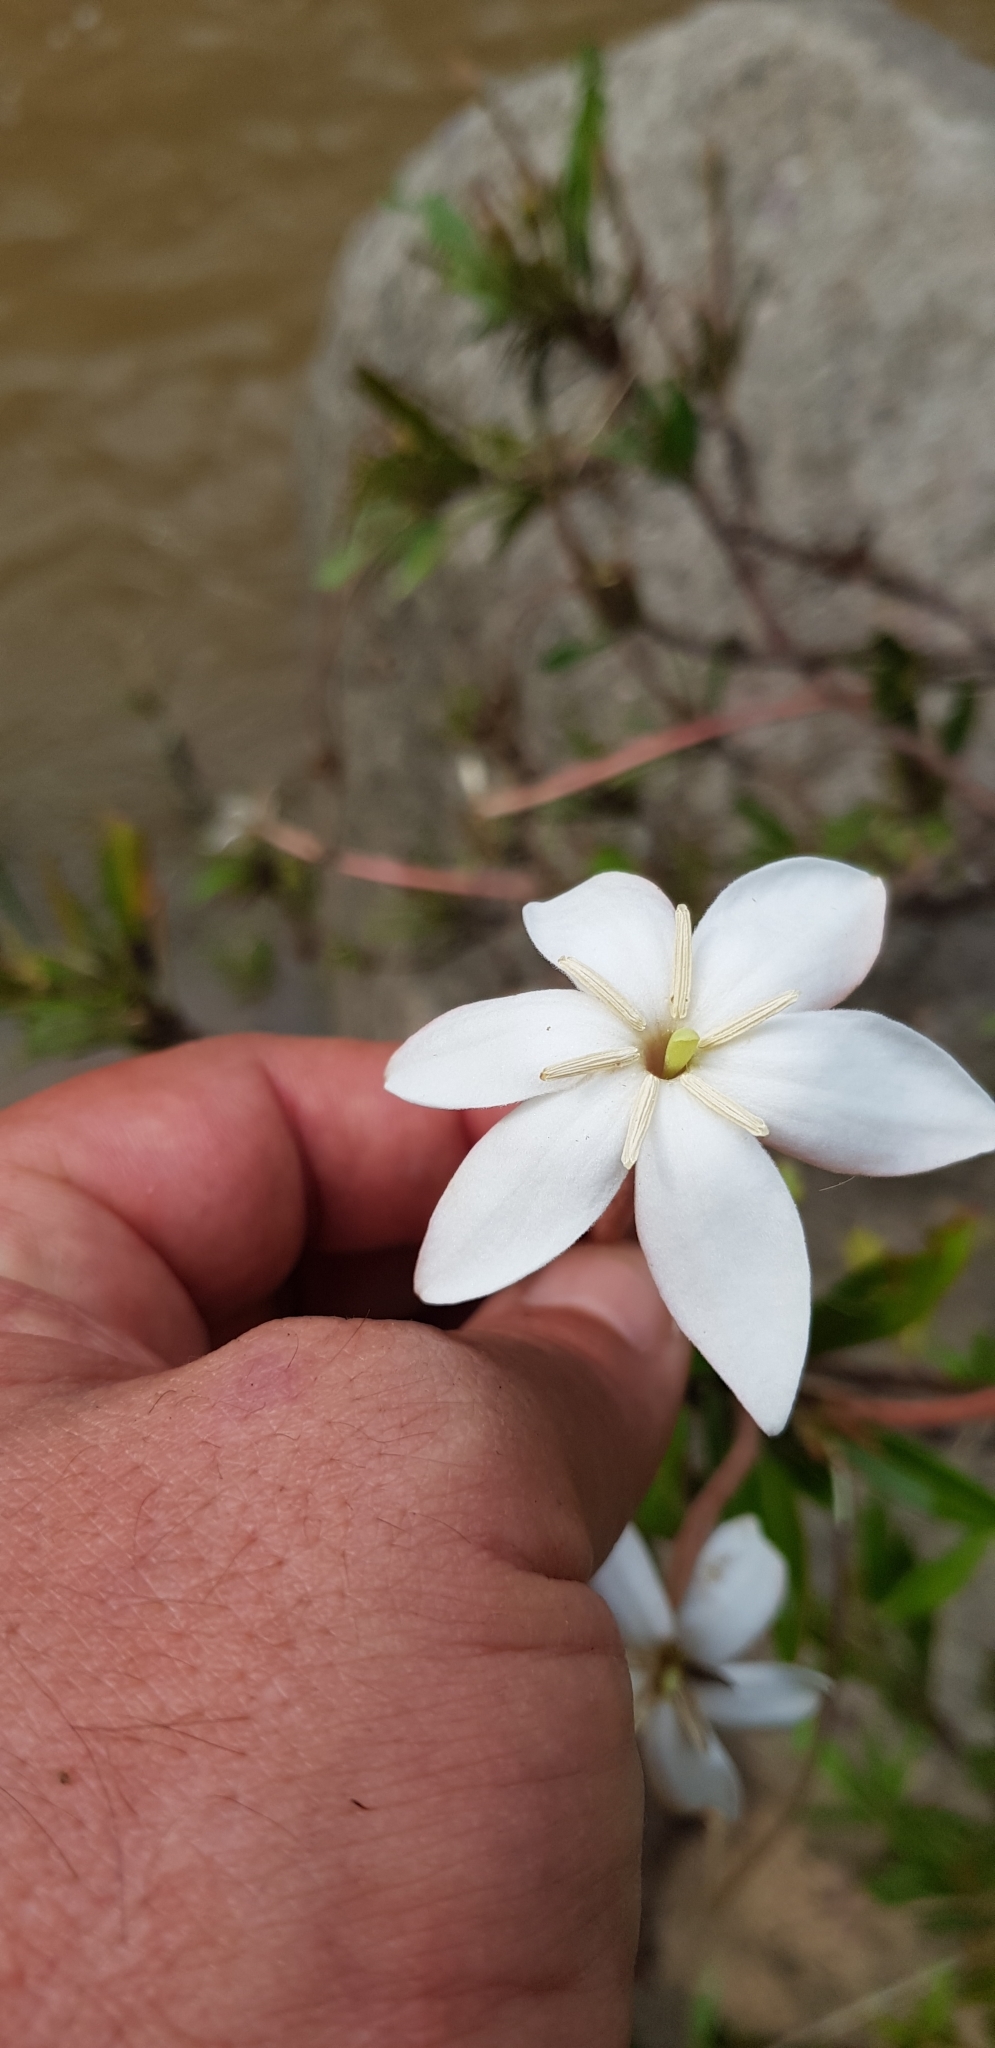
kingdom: Plantae
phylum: Tracheophyta
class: Magnoliopsida
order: Gentianales
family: Rubiaceae
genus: Augusta
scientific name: Augusta rivalis
